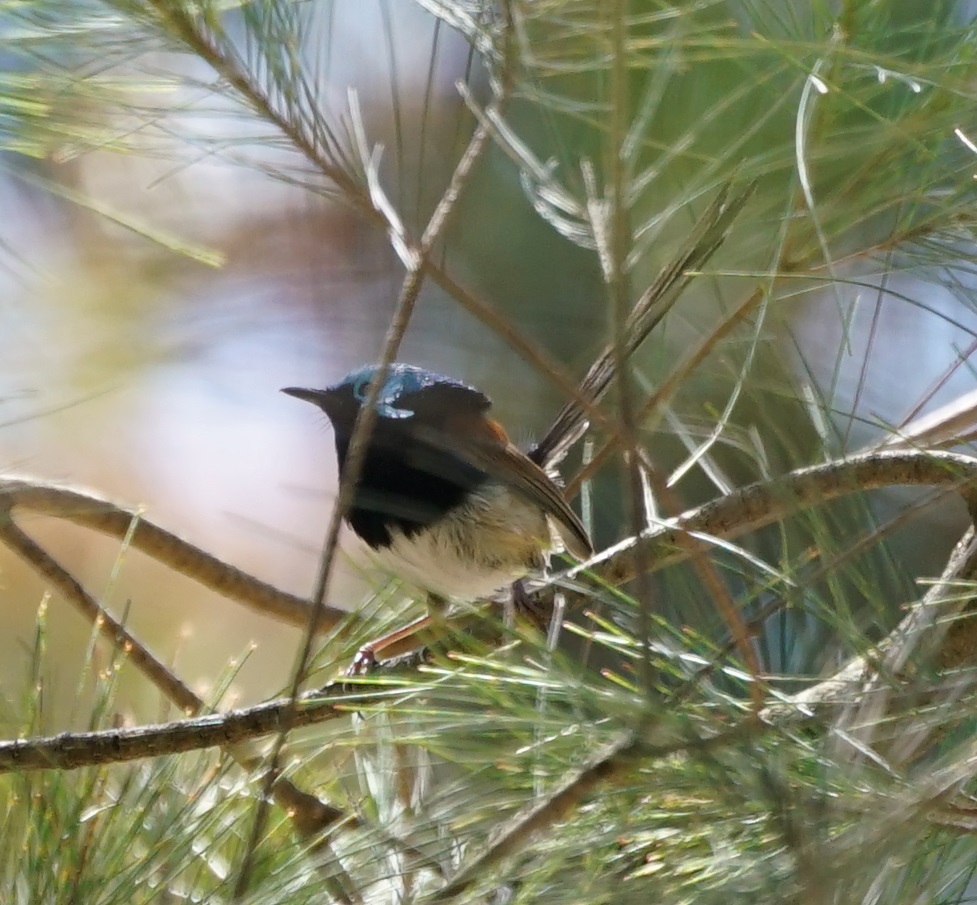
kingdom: Animalia
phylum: Chordata
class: Aves
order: Passeriformes
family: Maluridae
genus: Malurus
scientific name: Malurus lamberti
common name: Variegated fairywren
